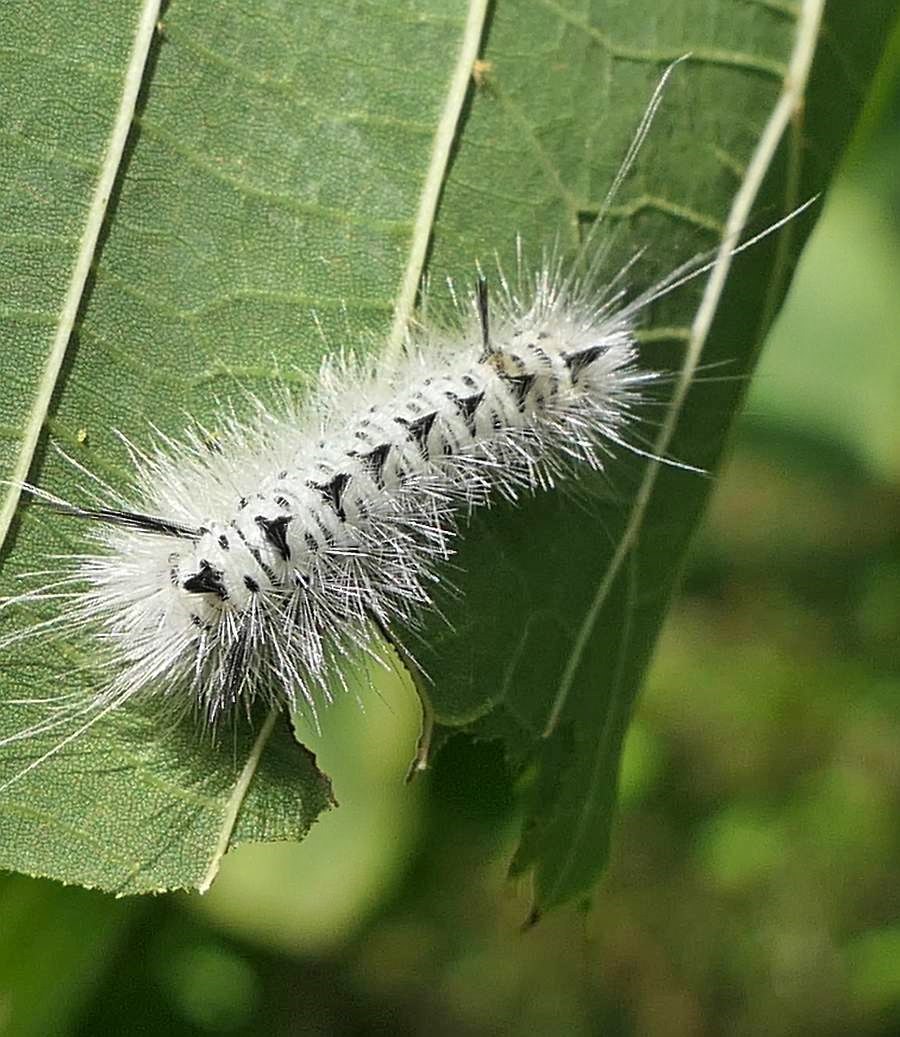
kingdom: Animalia
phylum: Arthropoda
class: Insecta
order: Lepidoptera
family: Erebidae
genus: Lophocampa
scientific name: Lophocampa caryae
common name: Hickory tussock moth
